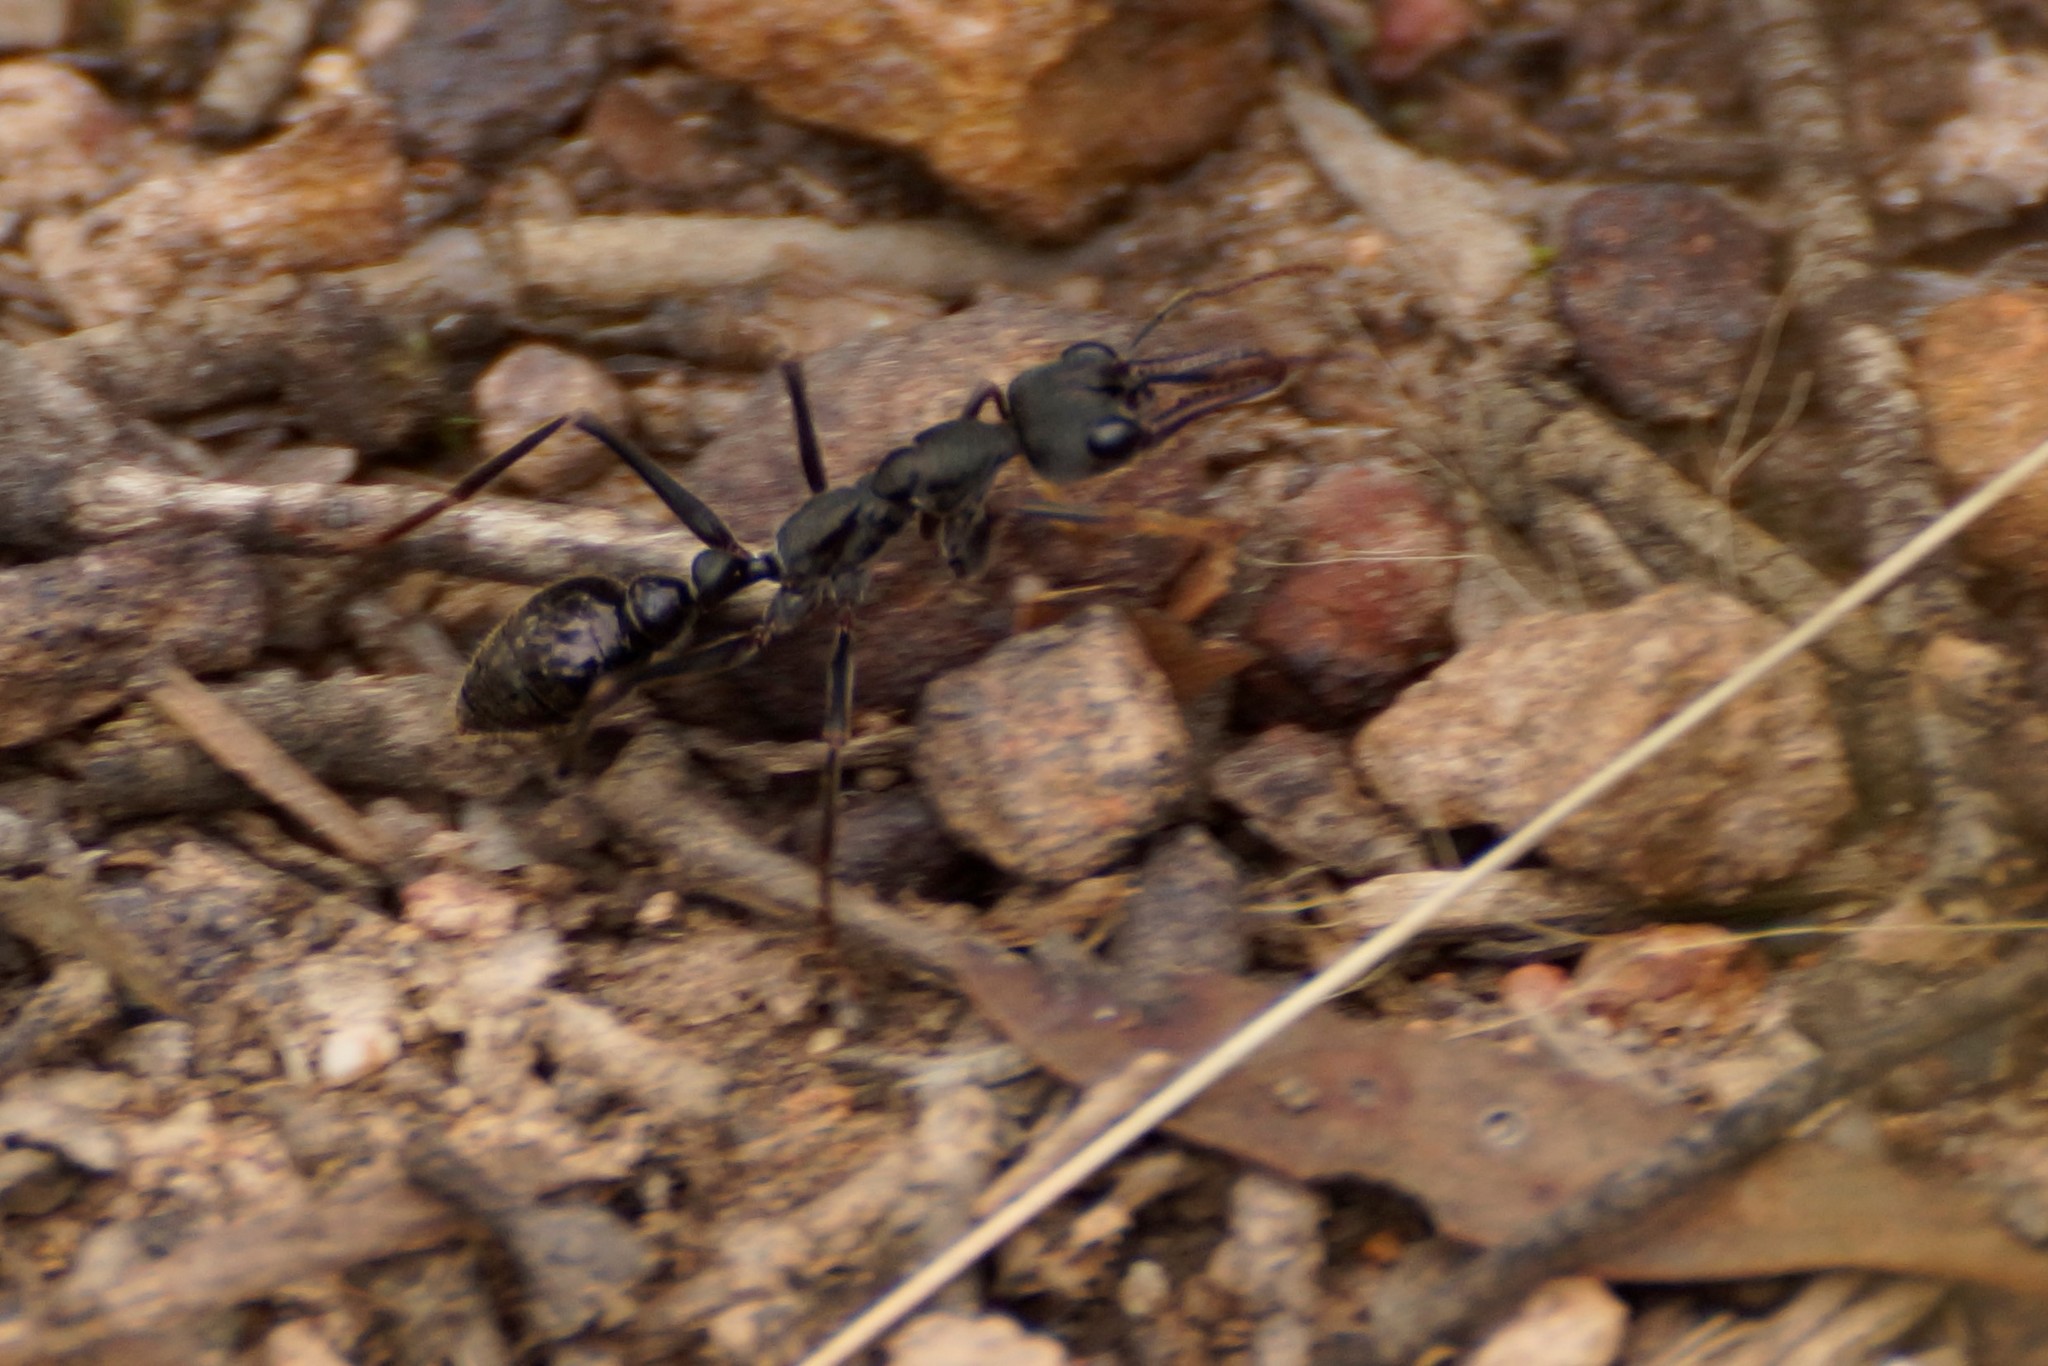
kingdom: Animalia
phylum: Arthropoda
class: Insecta
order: Hymenoptera
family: Formicidae
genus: Myrmecia
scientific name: Myrmecia pyriformis
